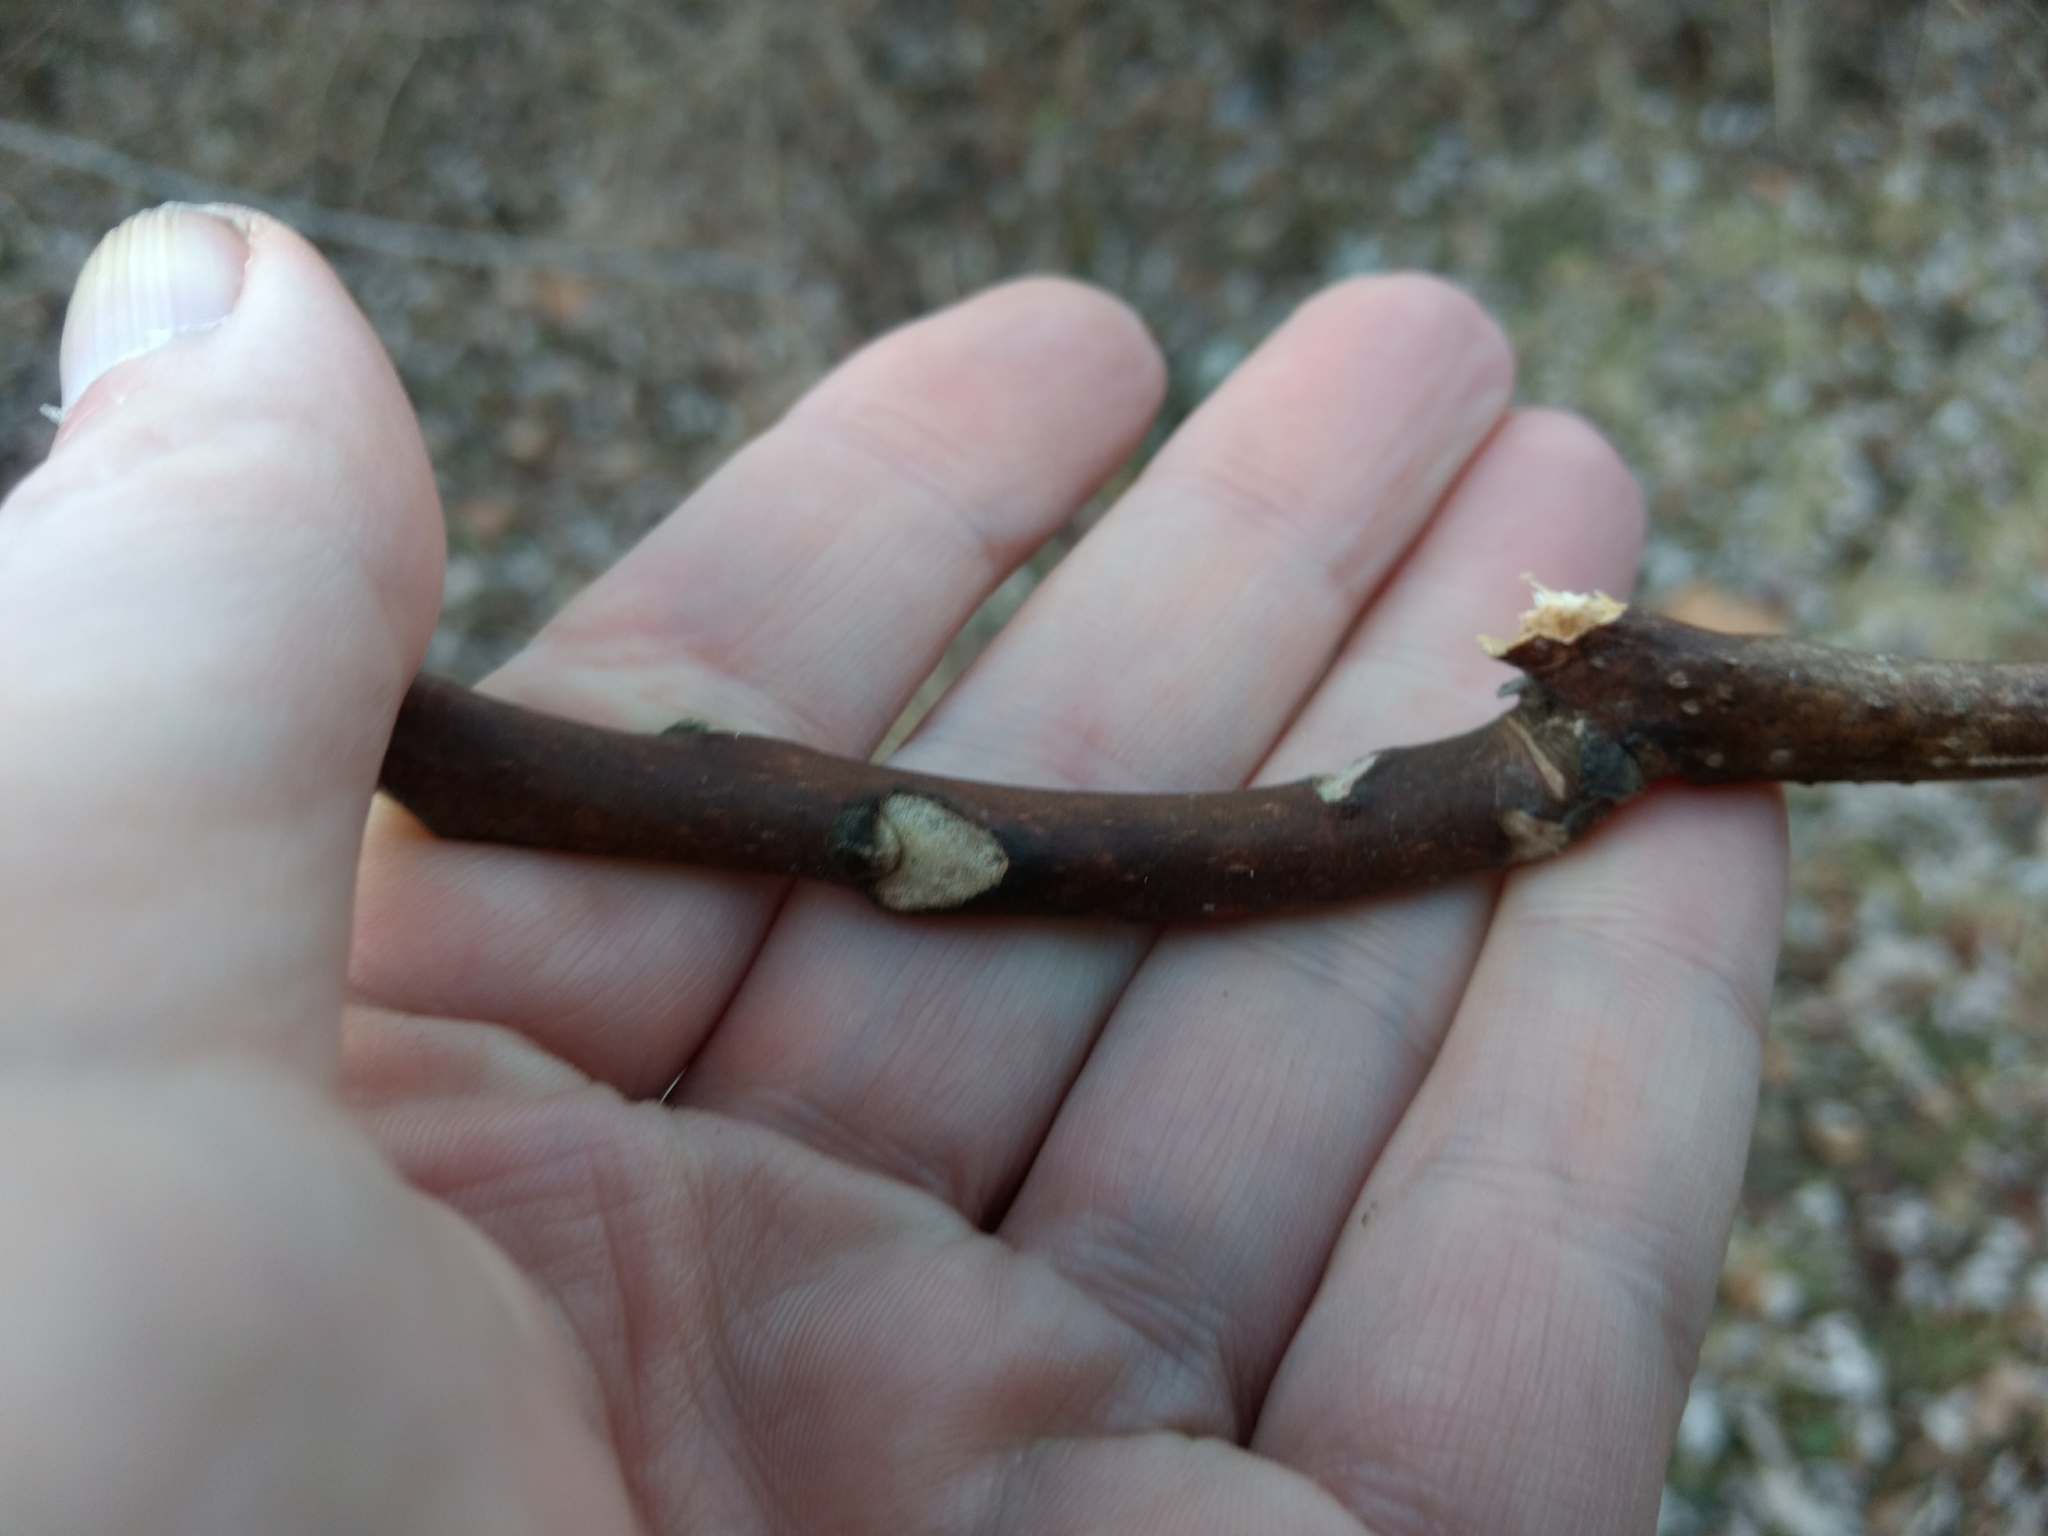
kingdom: Plantae
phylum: Tracheophyta
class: Magnoliopsida
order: Sapindales
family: Simaroubaceae
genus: Ailanthus
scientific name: Ailanthus altissima
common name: Tree-of-heaven
